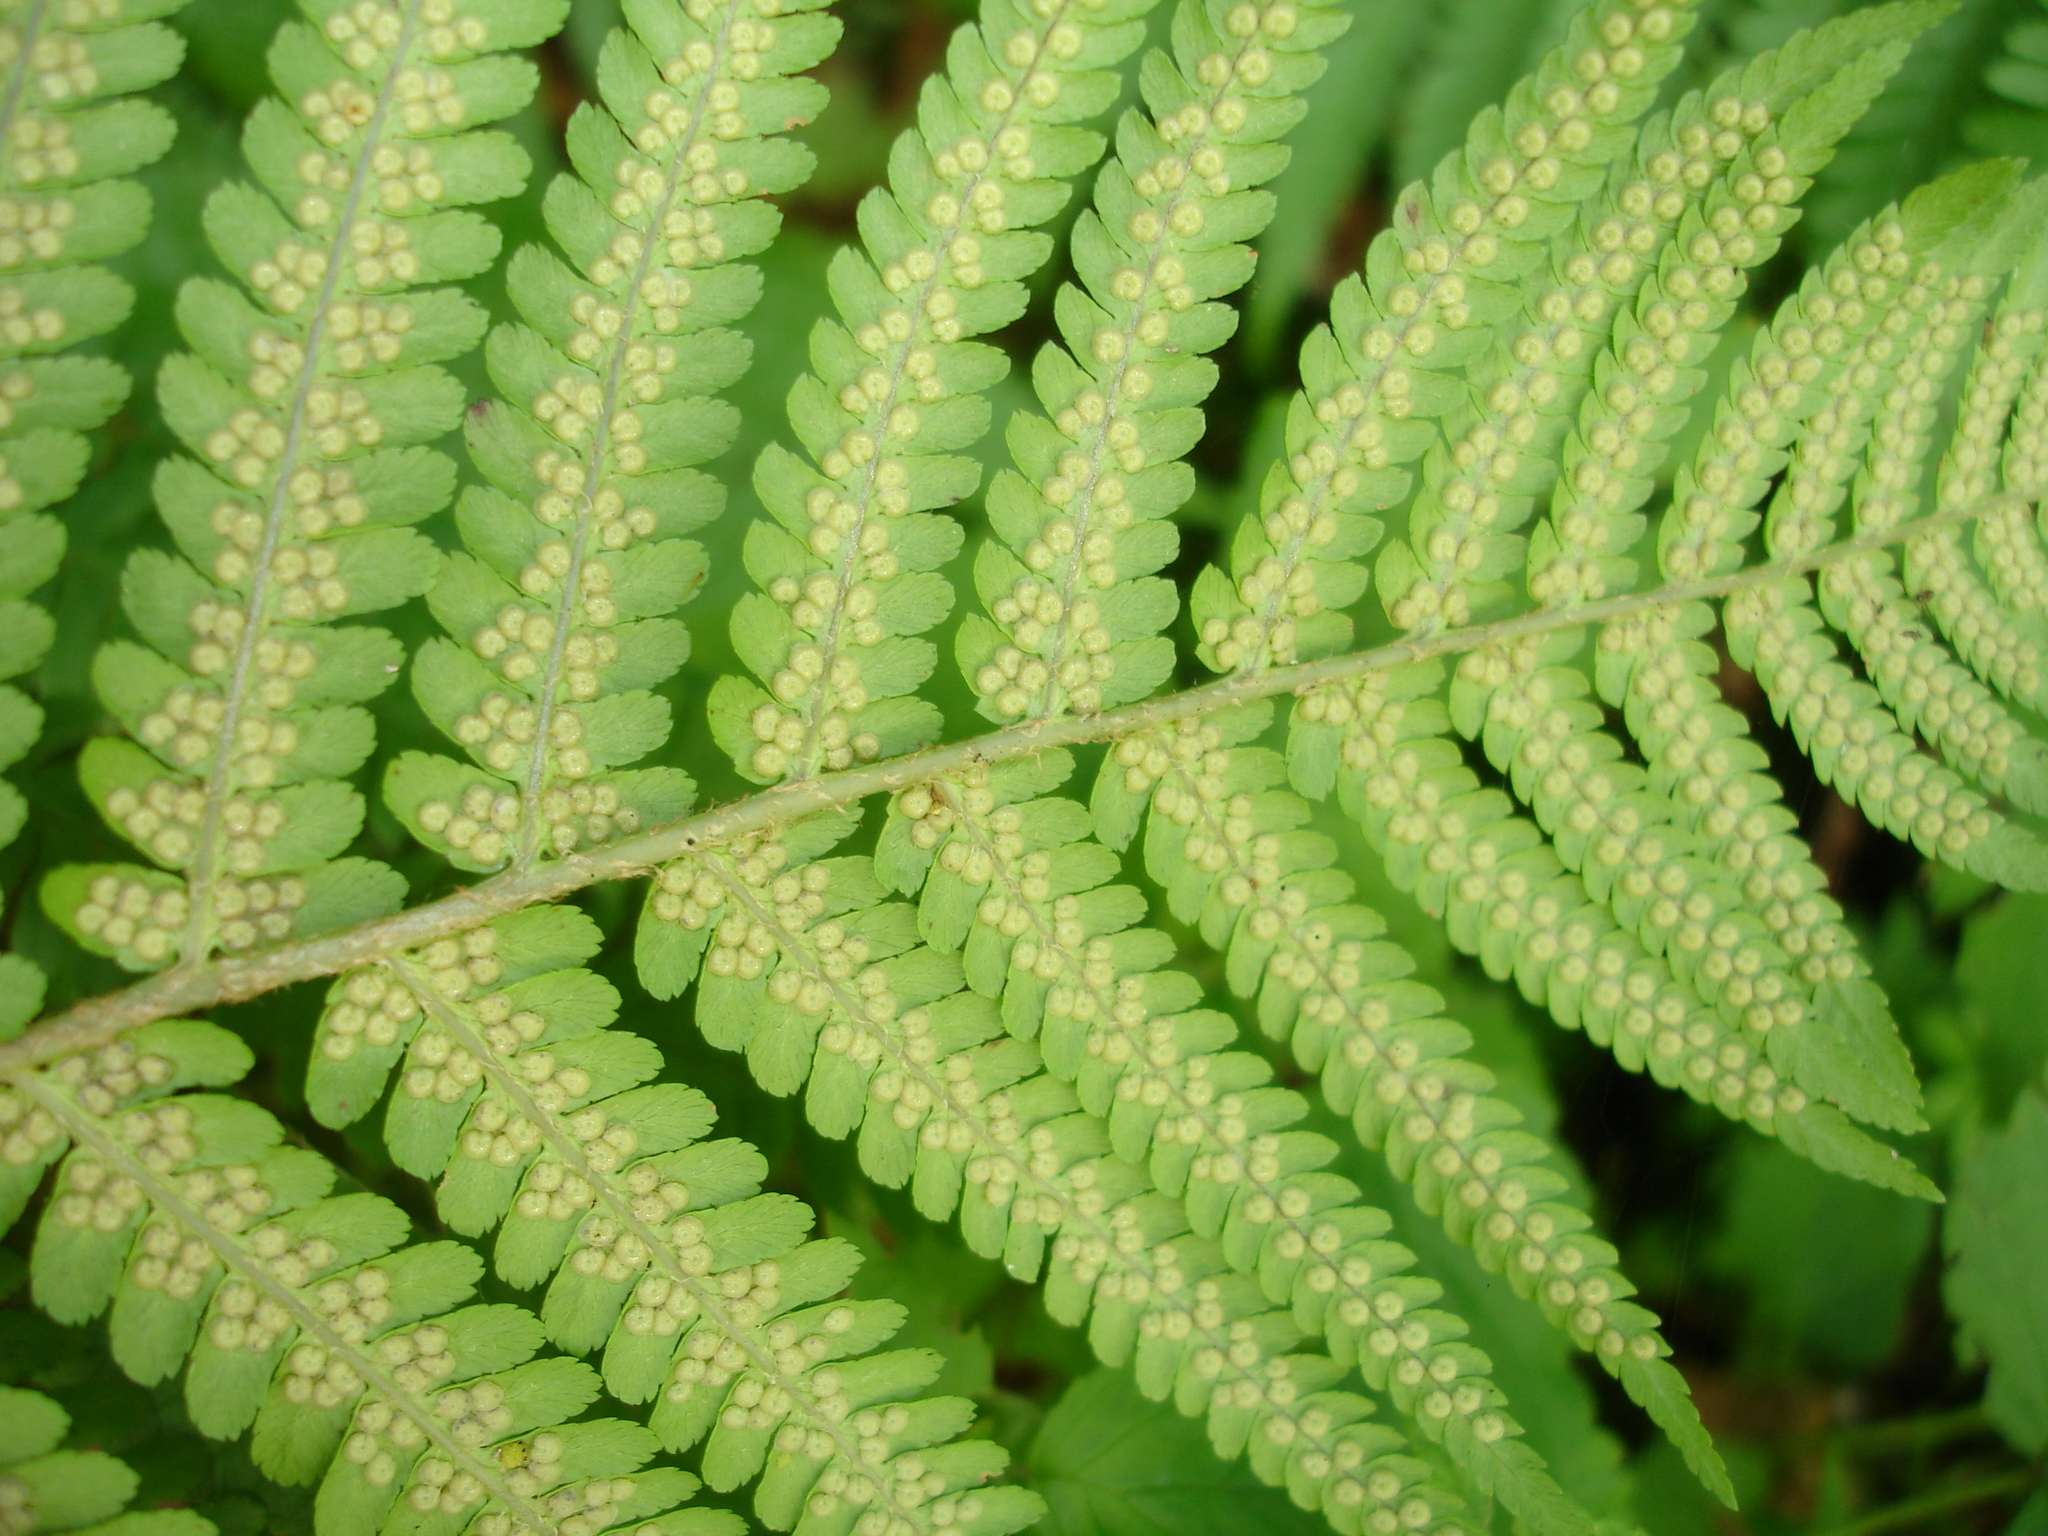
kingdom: Plantae
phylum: Tracheophyta
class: Polypodiopsida
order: Polypodiales
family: Dryopteridaceae
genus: Dryopteris
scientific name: Dryopteris filix-mas
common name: Male fern
